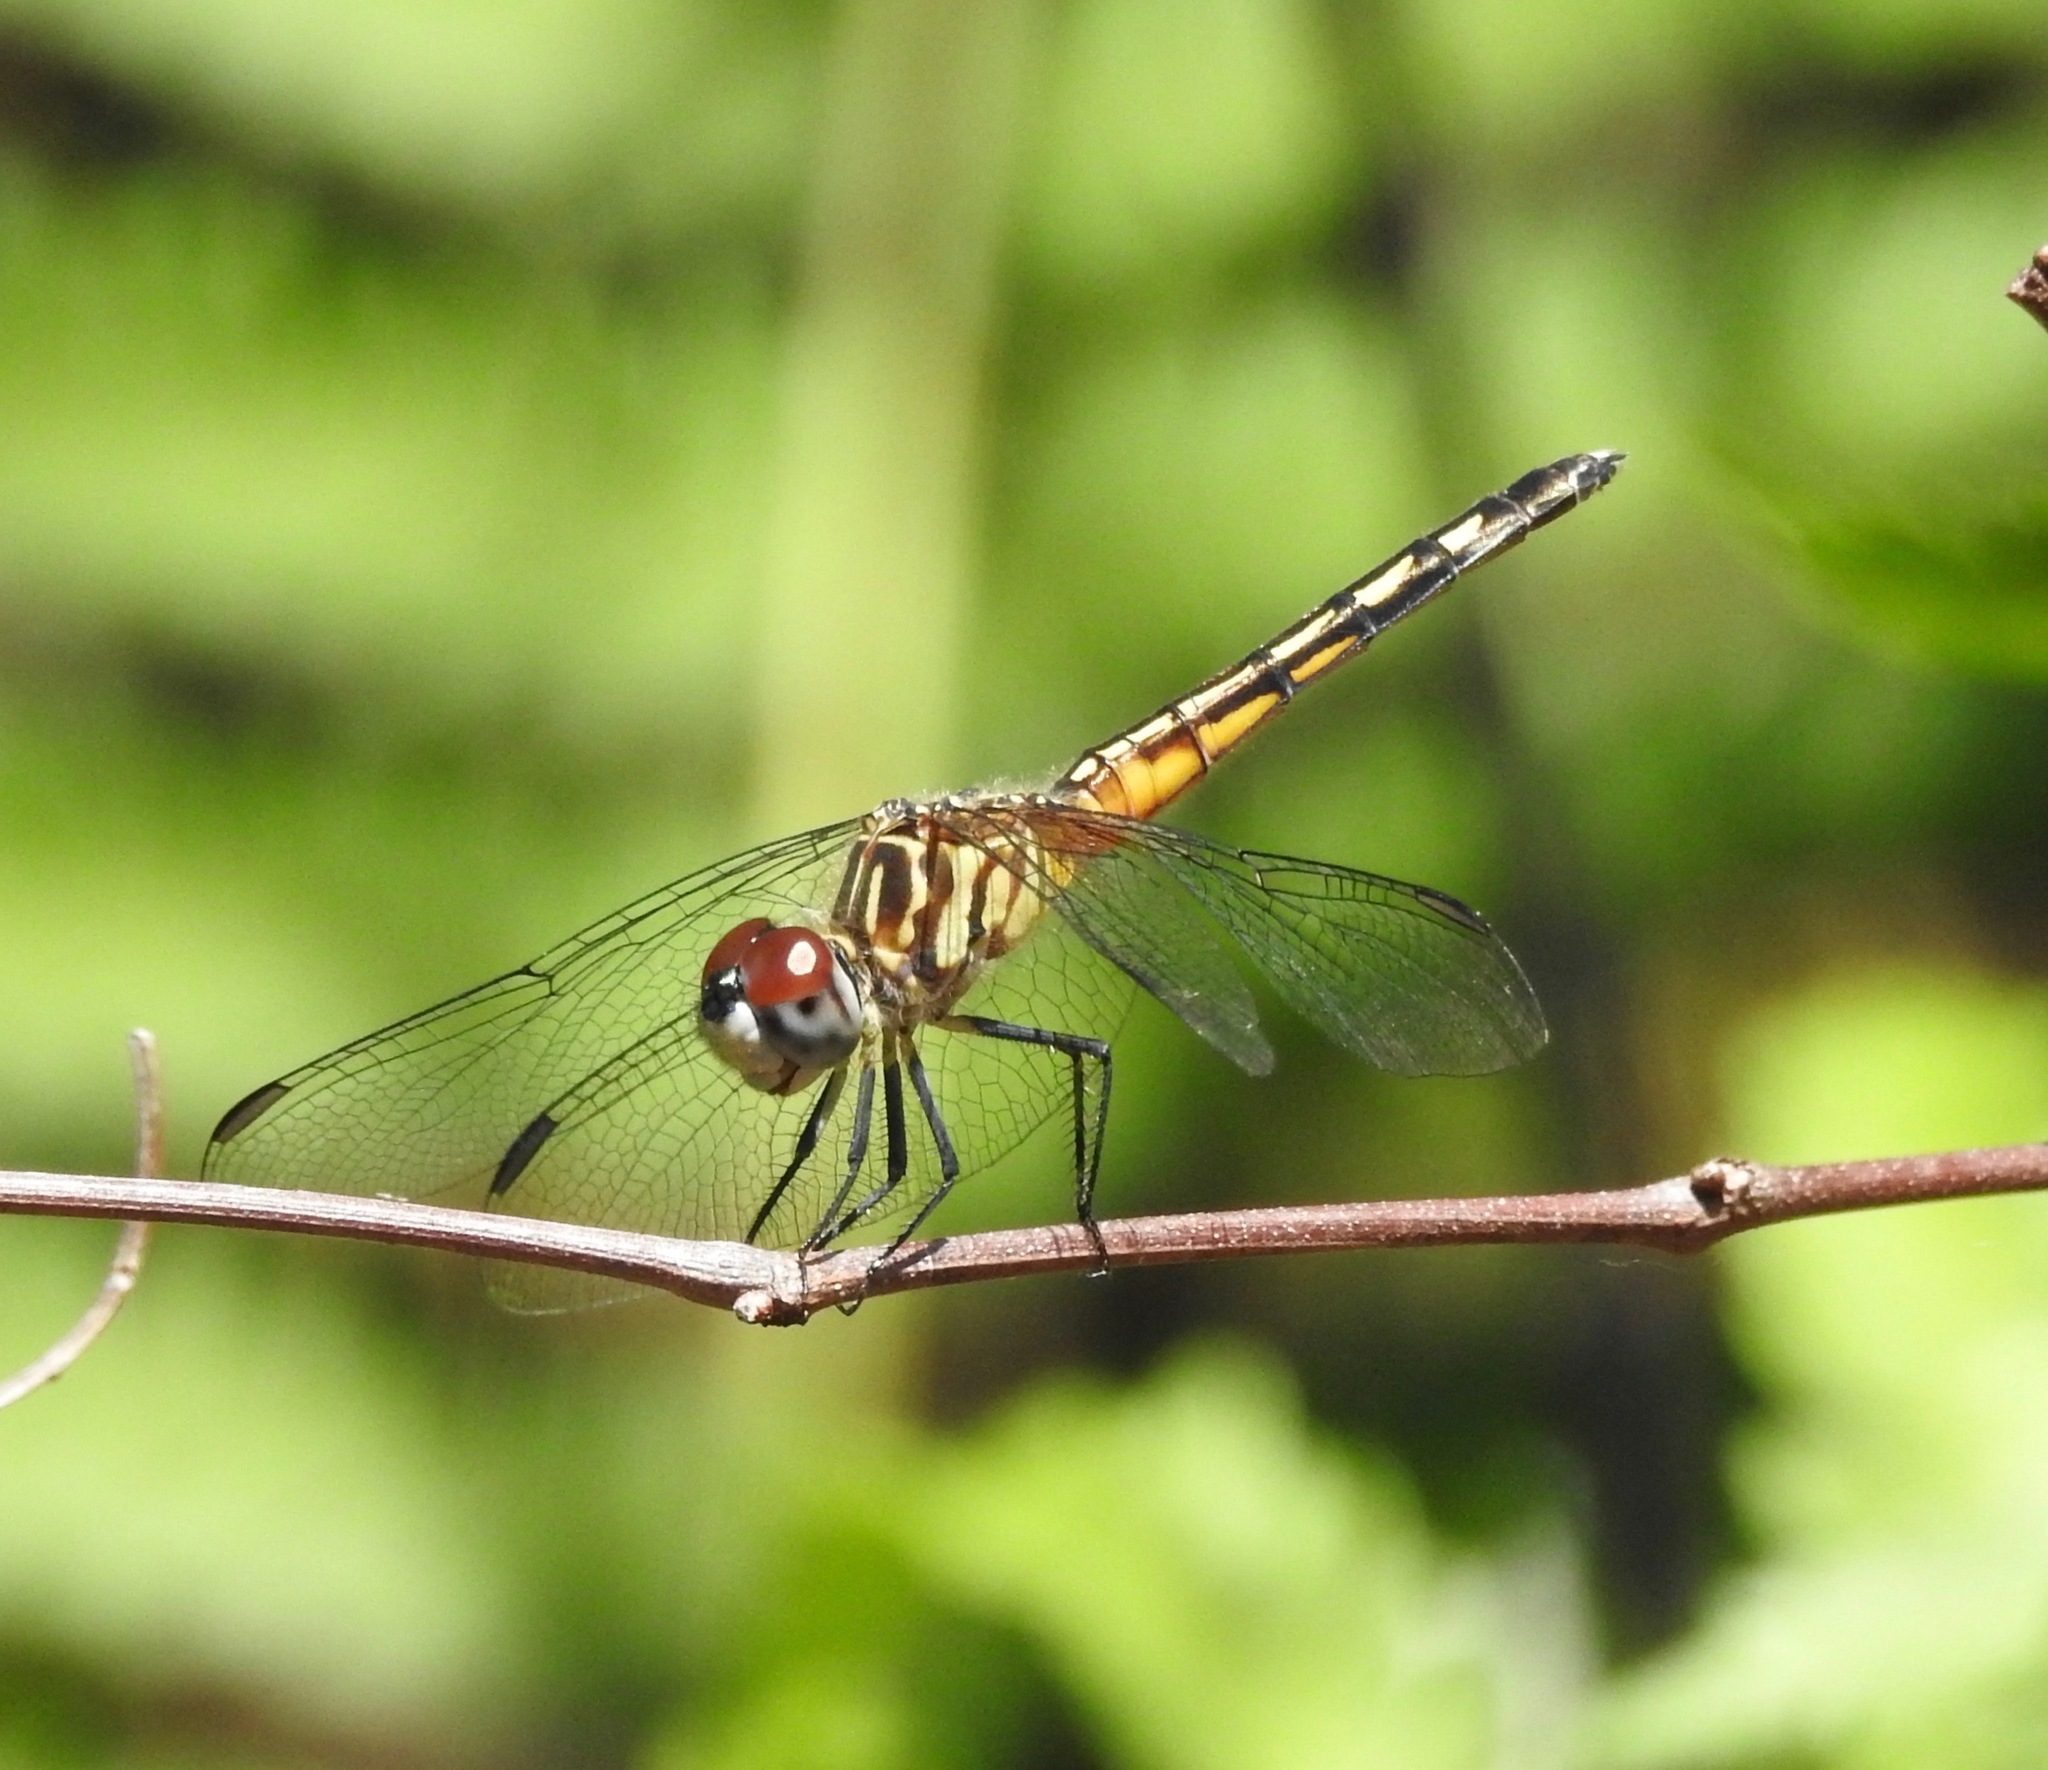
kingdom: Animalia
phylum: Arthropoda
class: Insecta
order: Odonata
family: Libellulidae
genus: Pachydiplax
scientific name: Pachydiplax longipennis
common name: Blue dasher
